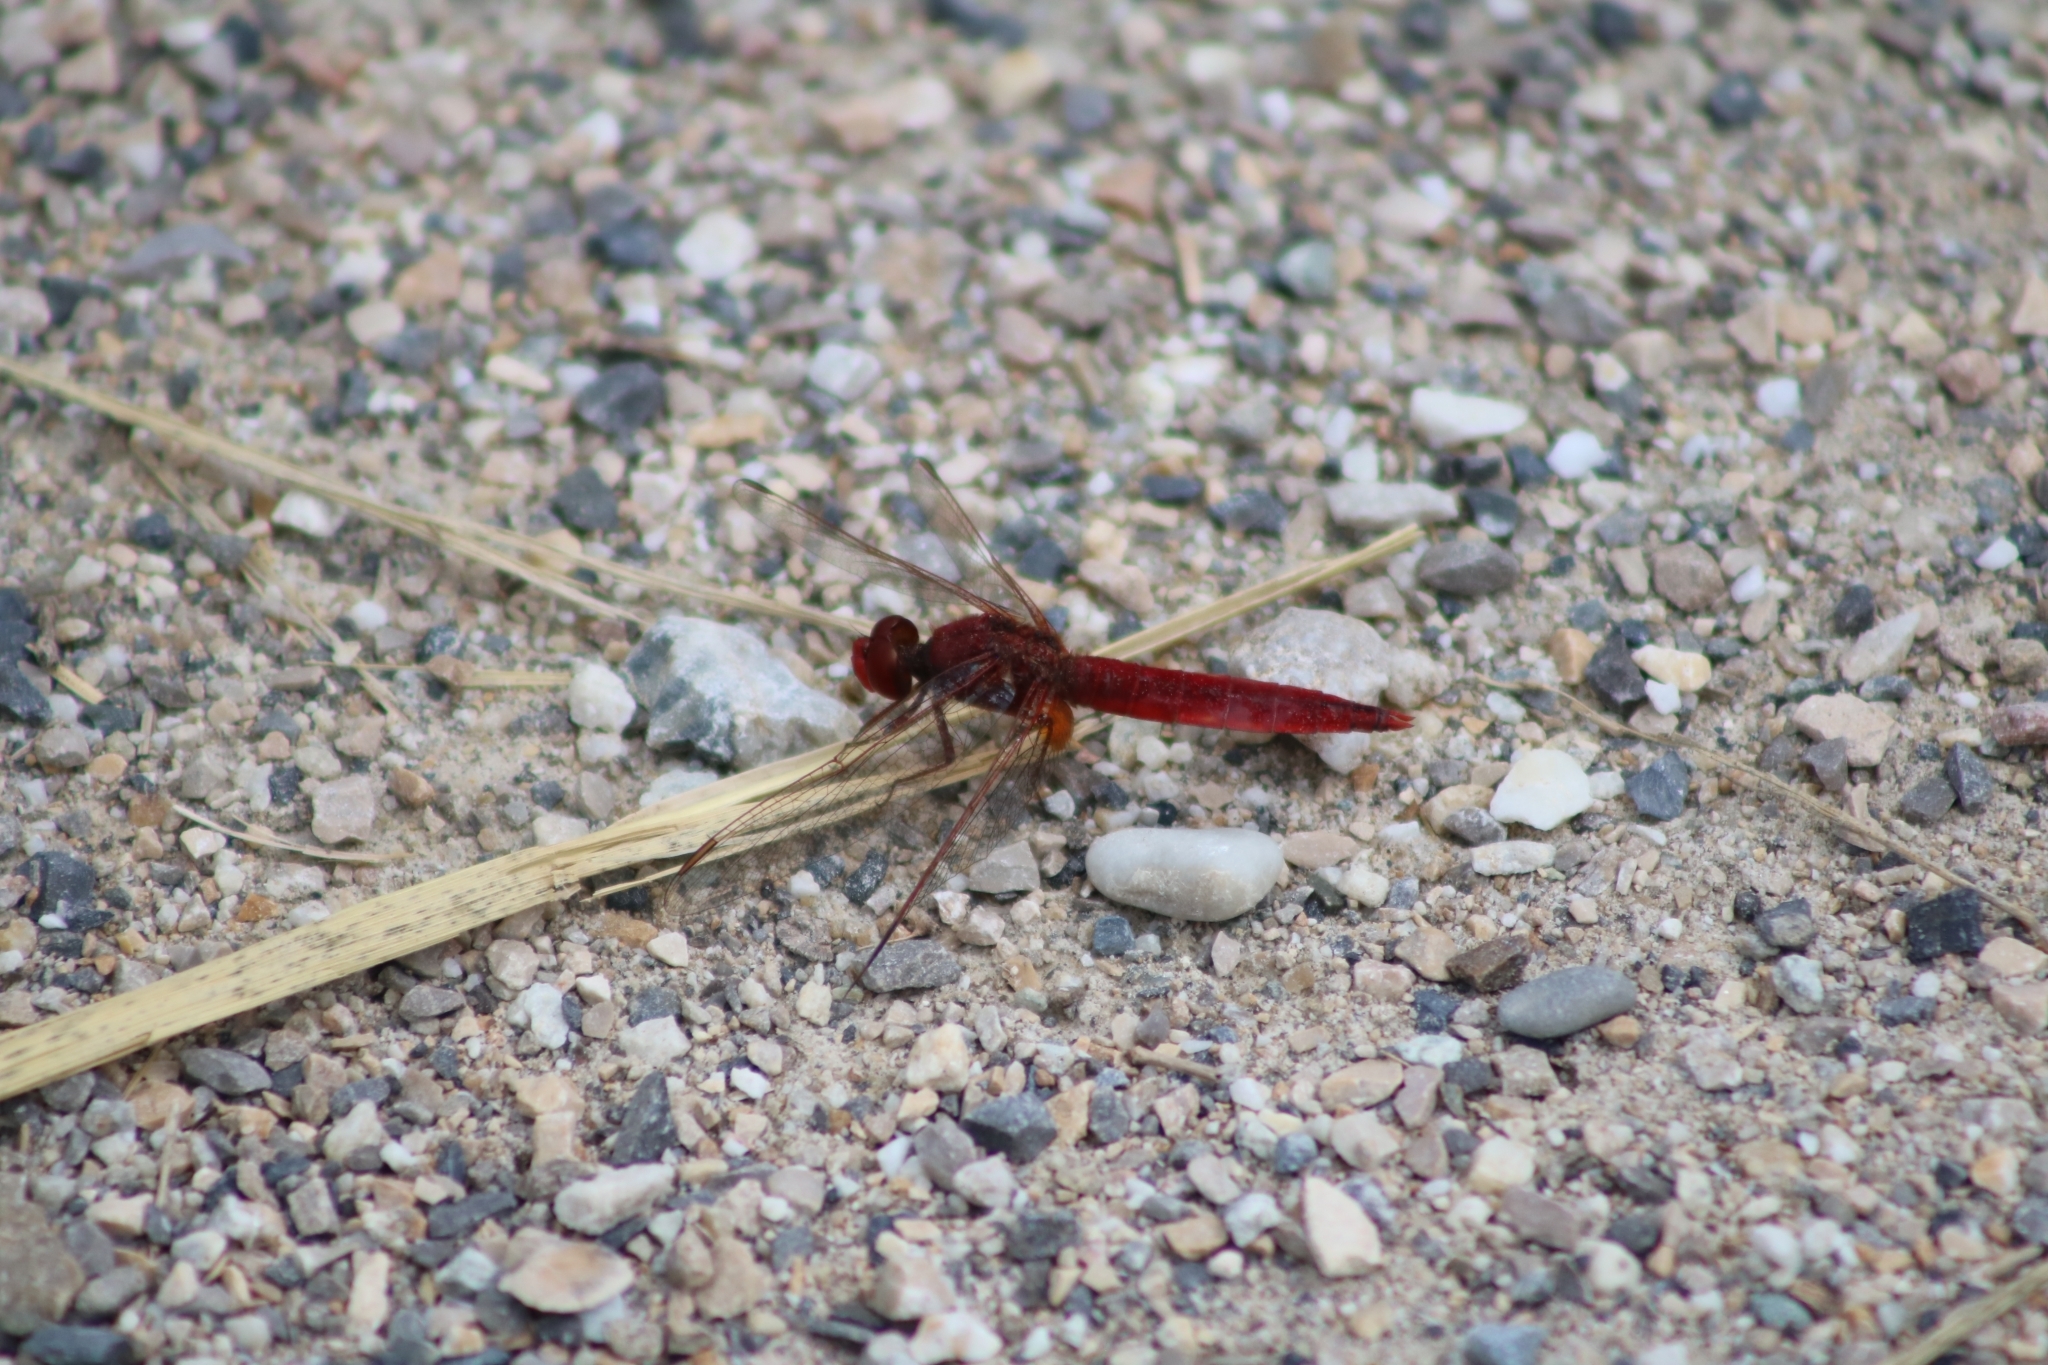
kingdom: Animalia
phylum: Arthropoda
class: Insecta
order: Odonata
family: Libellulidae
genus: Crocothemis
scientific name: Crocothemis erythraea
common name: Scarlet dragonfly
